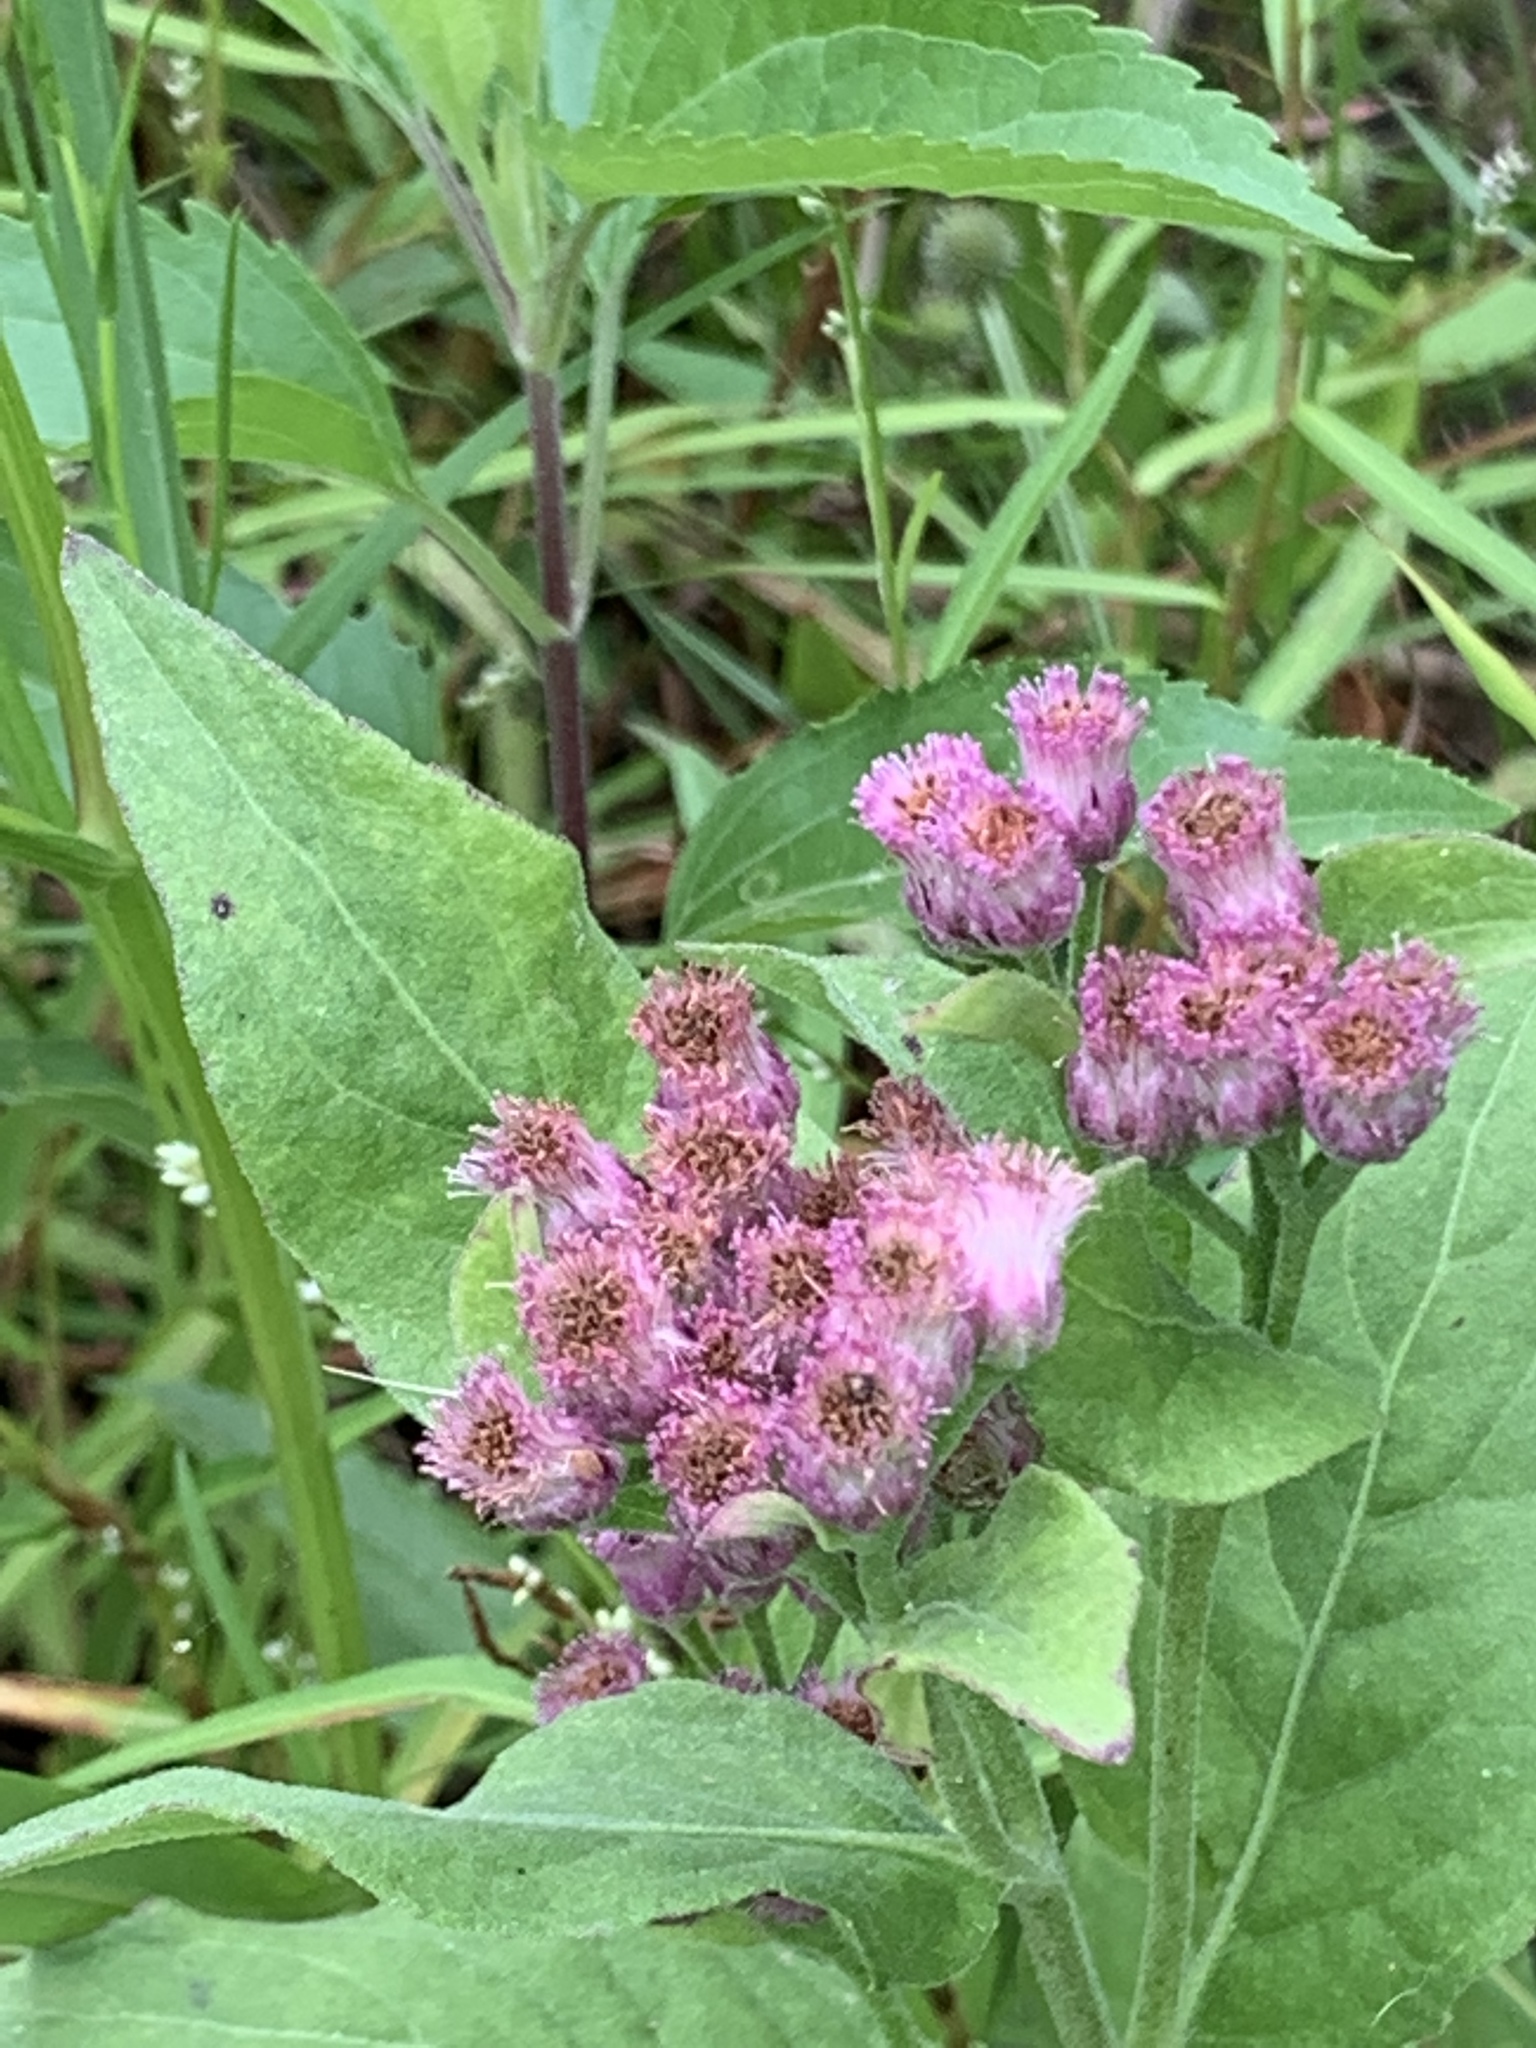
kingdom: Plantae
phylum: Tracheophyta
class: Magnoliopsida
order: Asterales
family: Asteraceae
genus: Pluchea
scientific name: Pluchea odorata
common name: Saltmarsh fleabane
